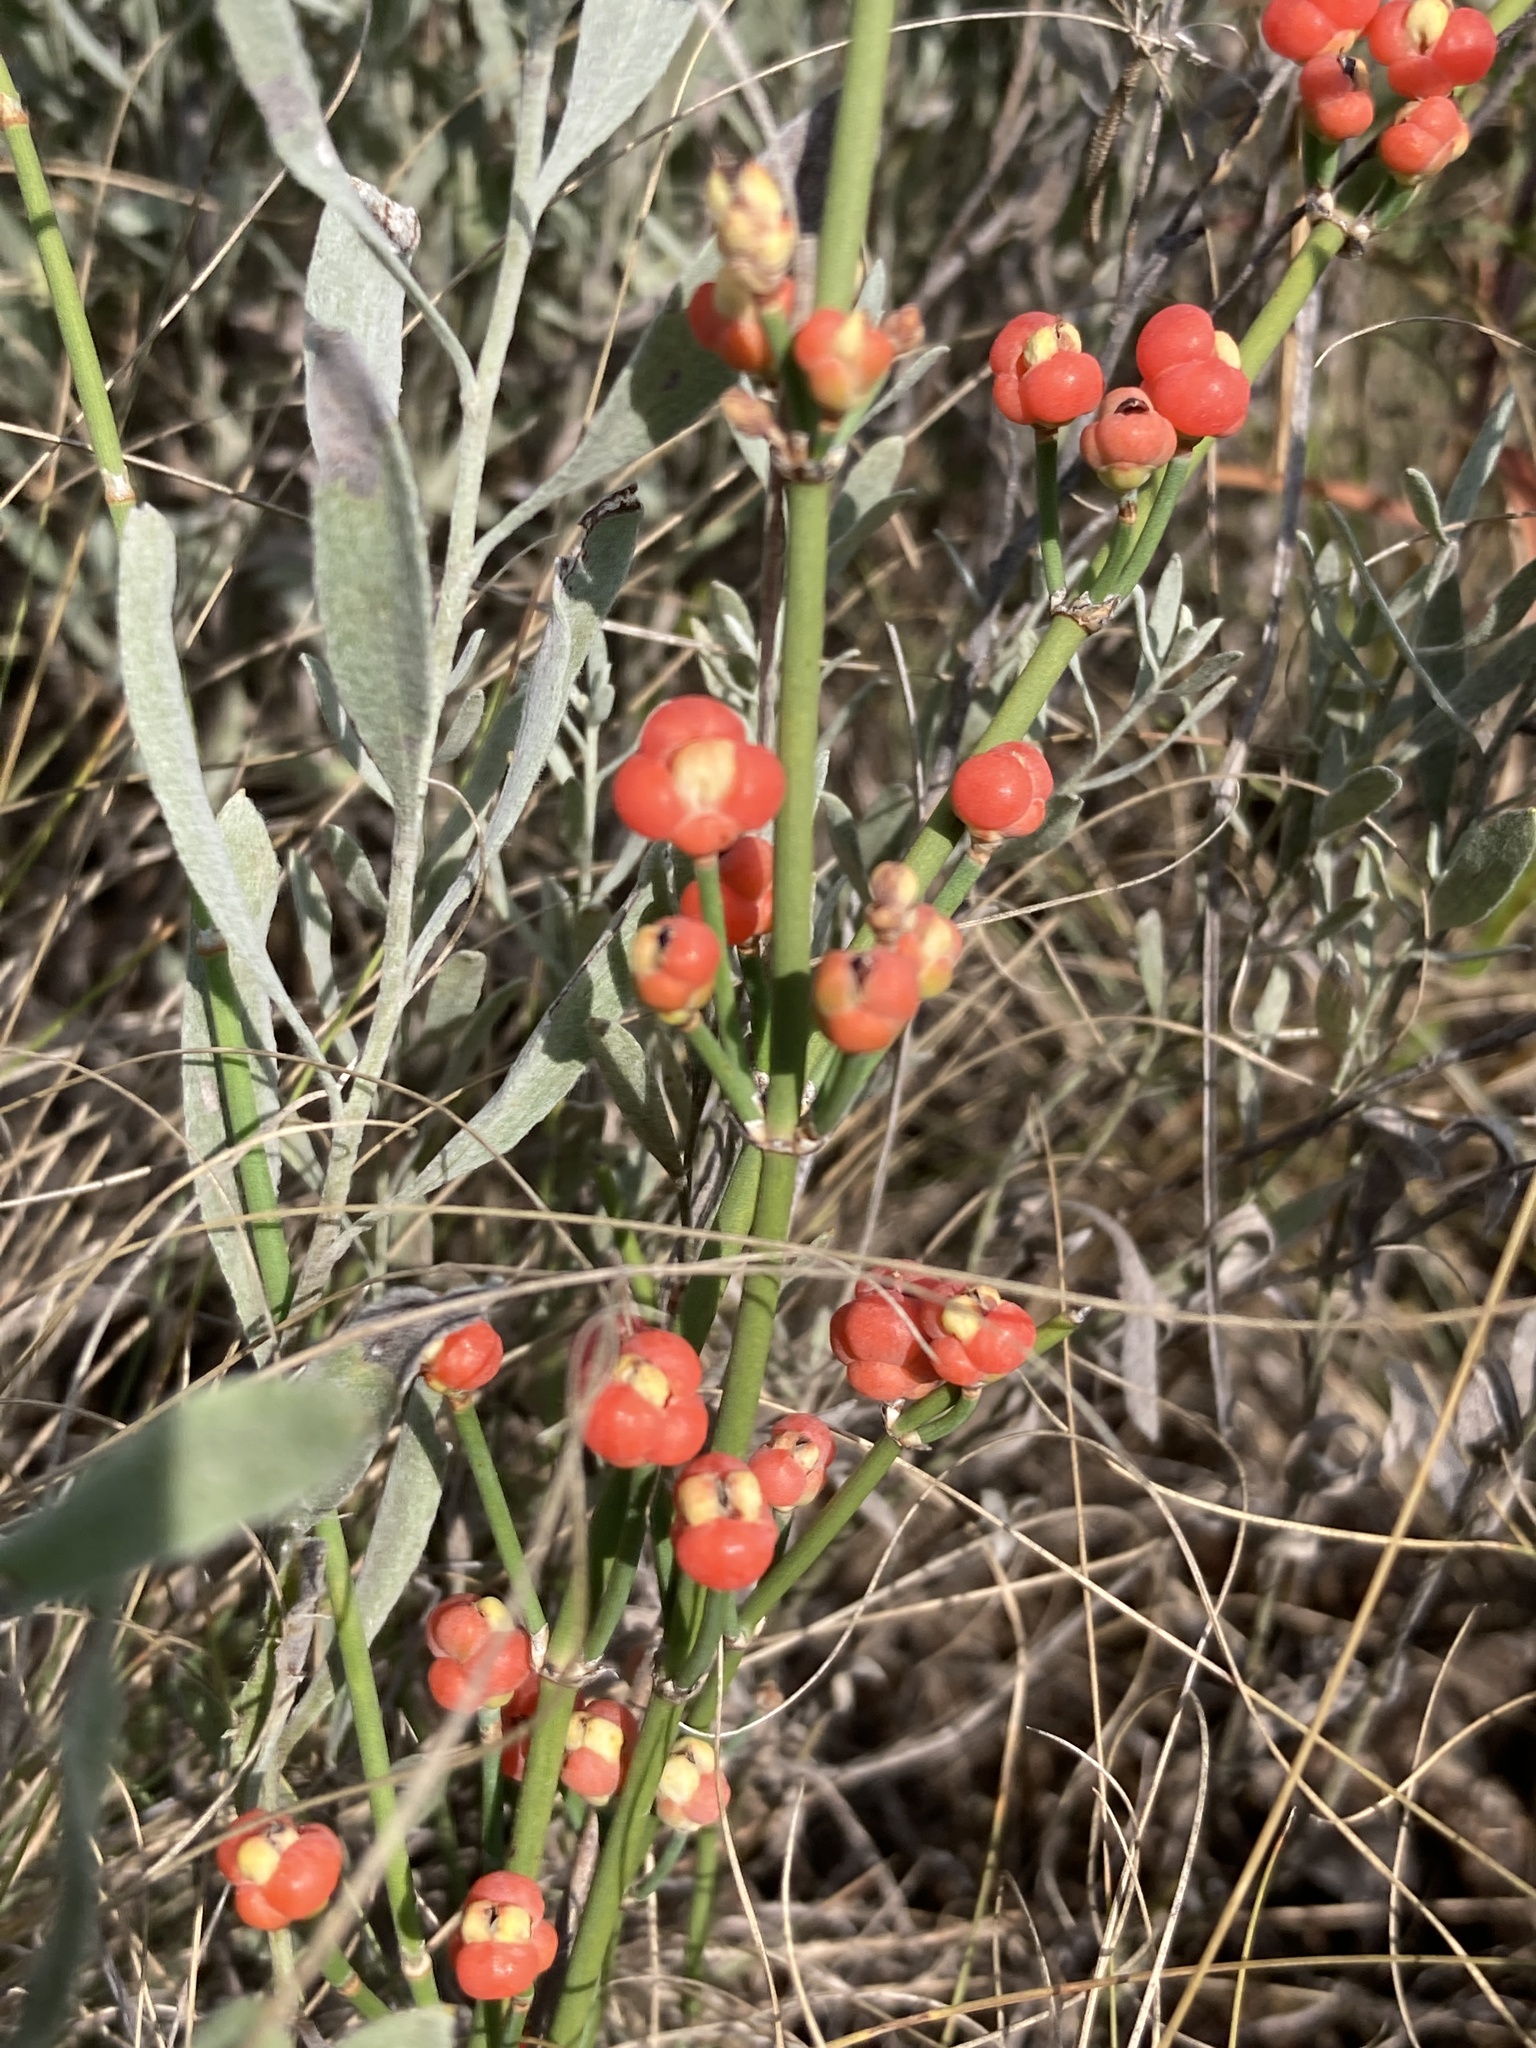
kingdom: Plantae
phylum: Tracheophyta
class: Gnetopsida
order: Ephedrales
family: Ephedraceae
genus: Ephedra
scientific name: Ephedra distachya
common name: Sea grape
